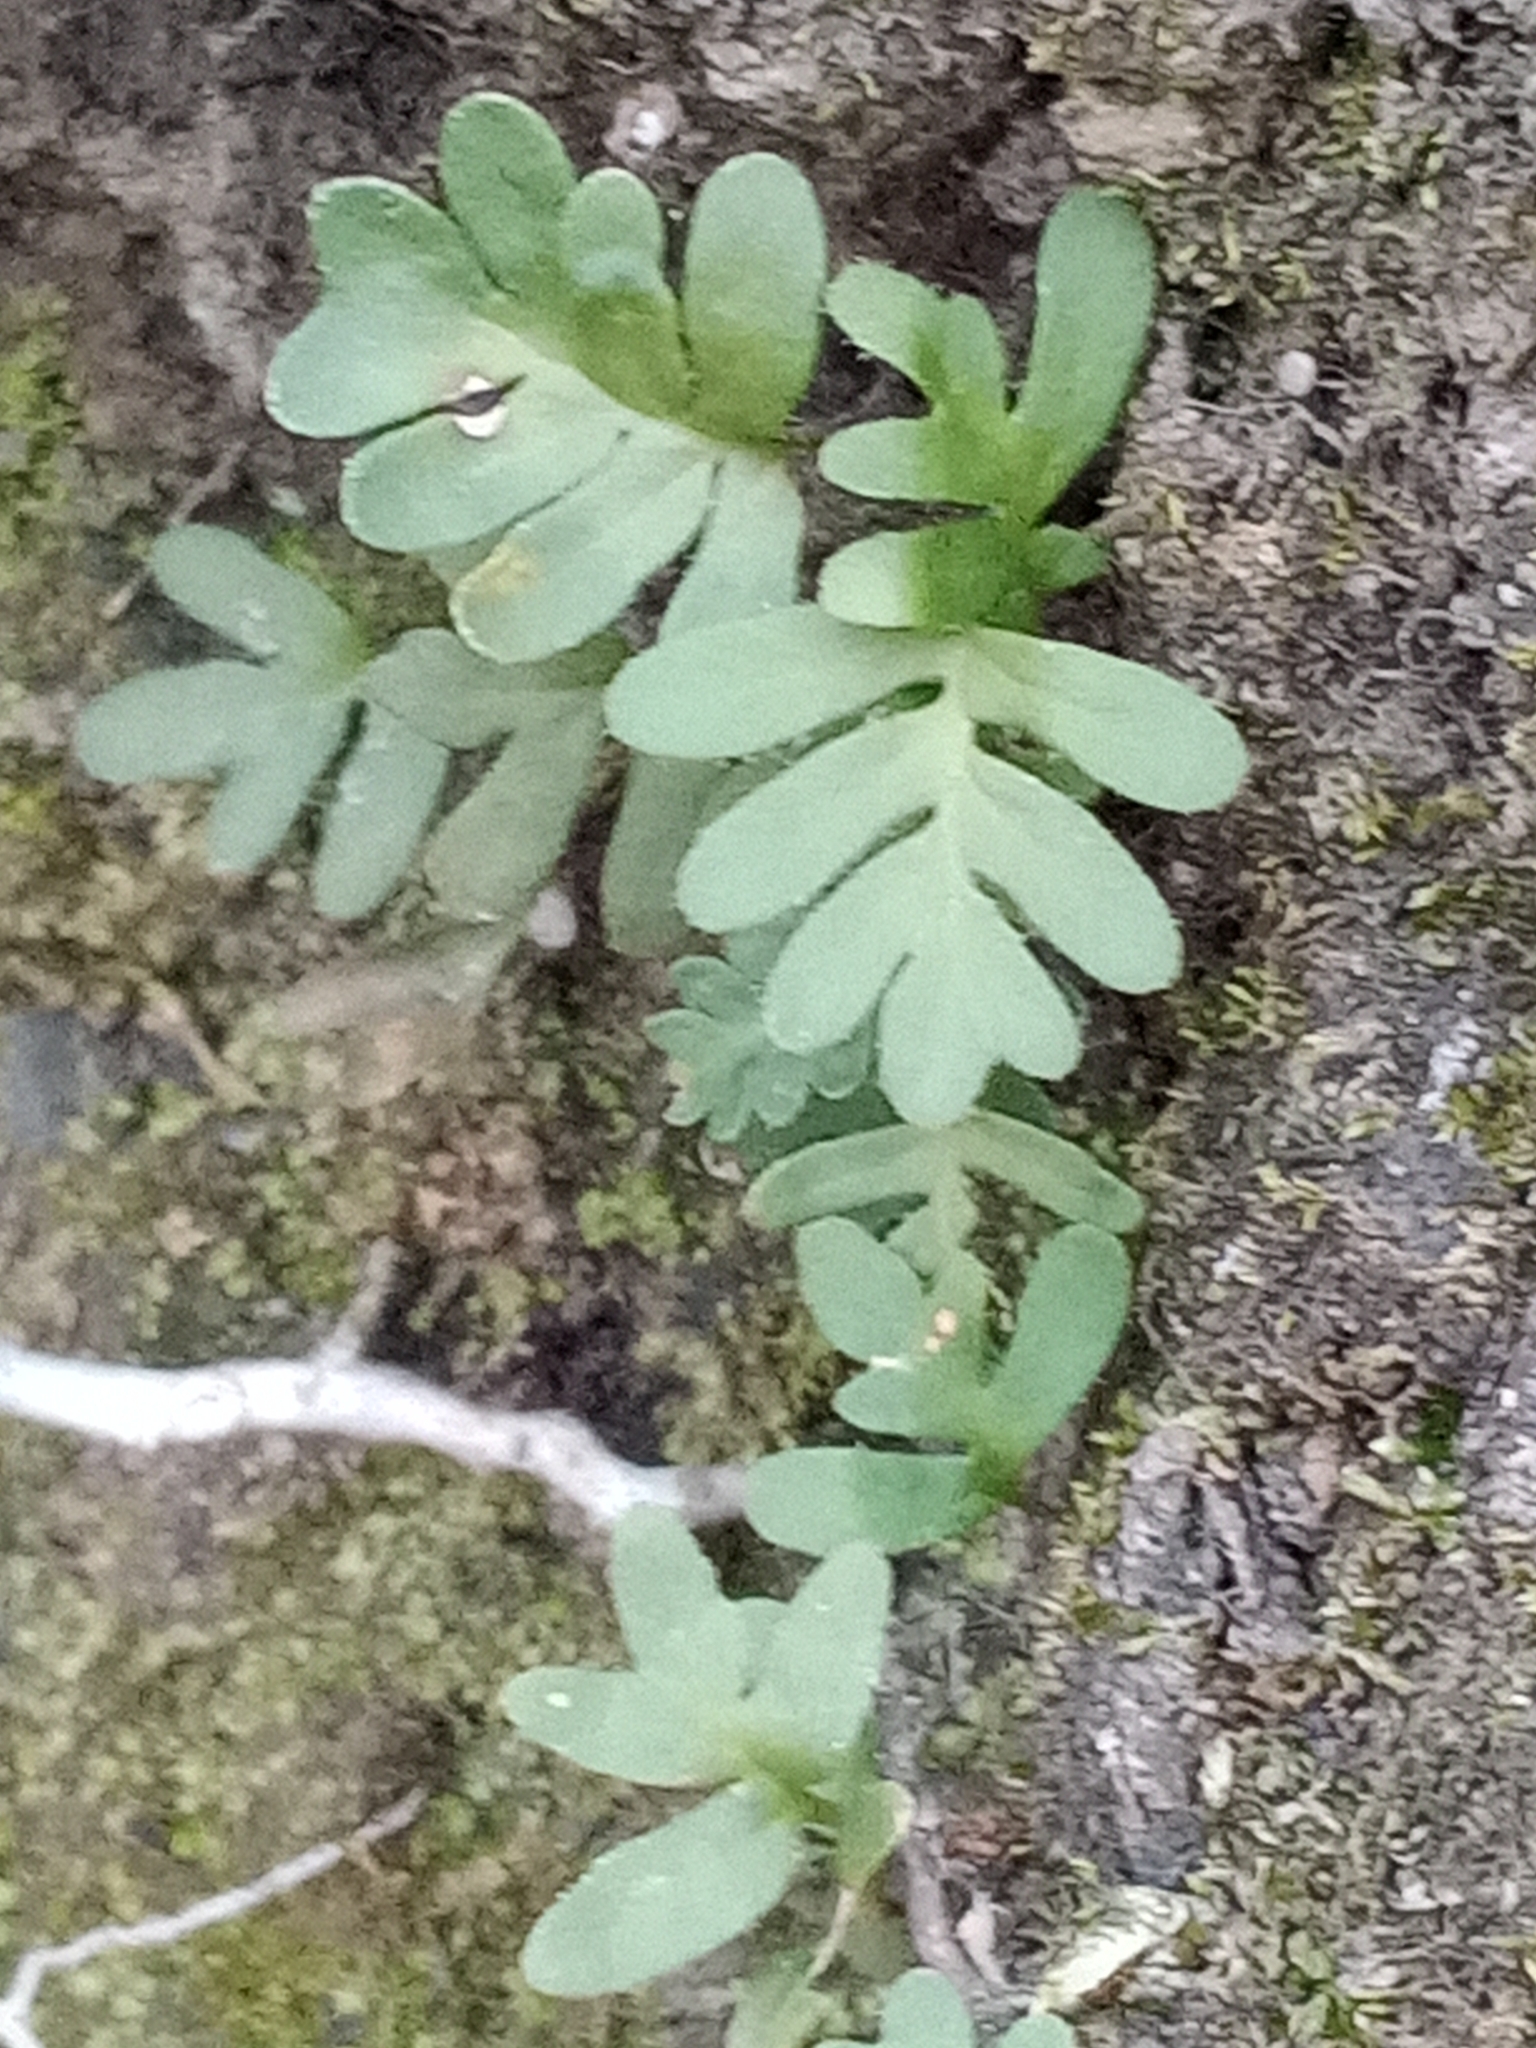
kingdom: Plantae
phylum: Tracheophyta
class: Polypodiopsida
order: Polypodiales
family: Polypodiaceae
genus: Pleopeltis
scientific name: Pleopeltis michauxiana
